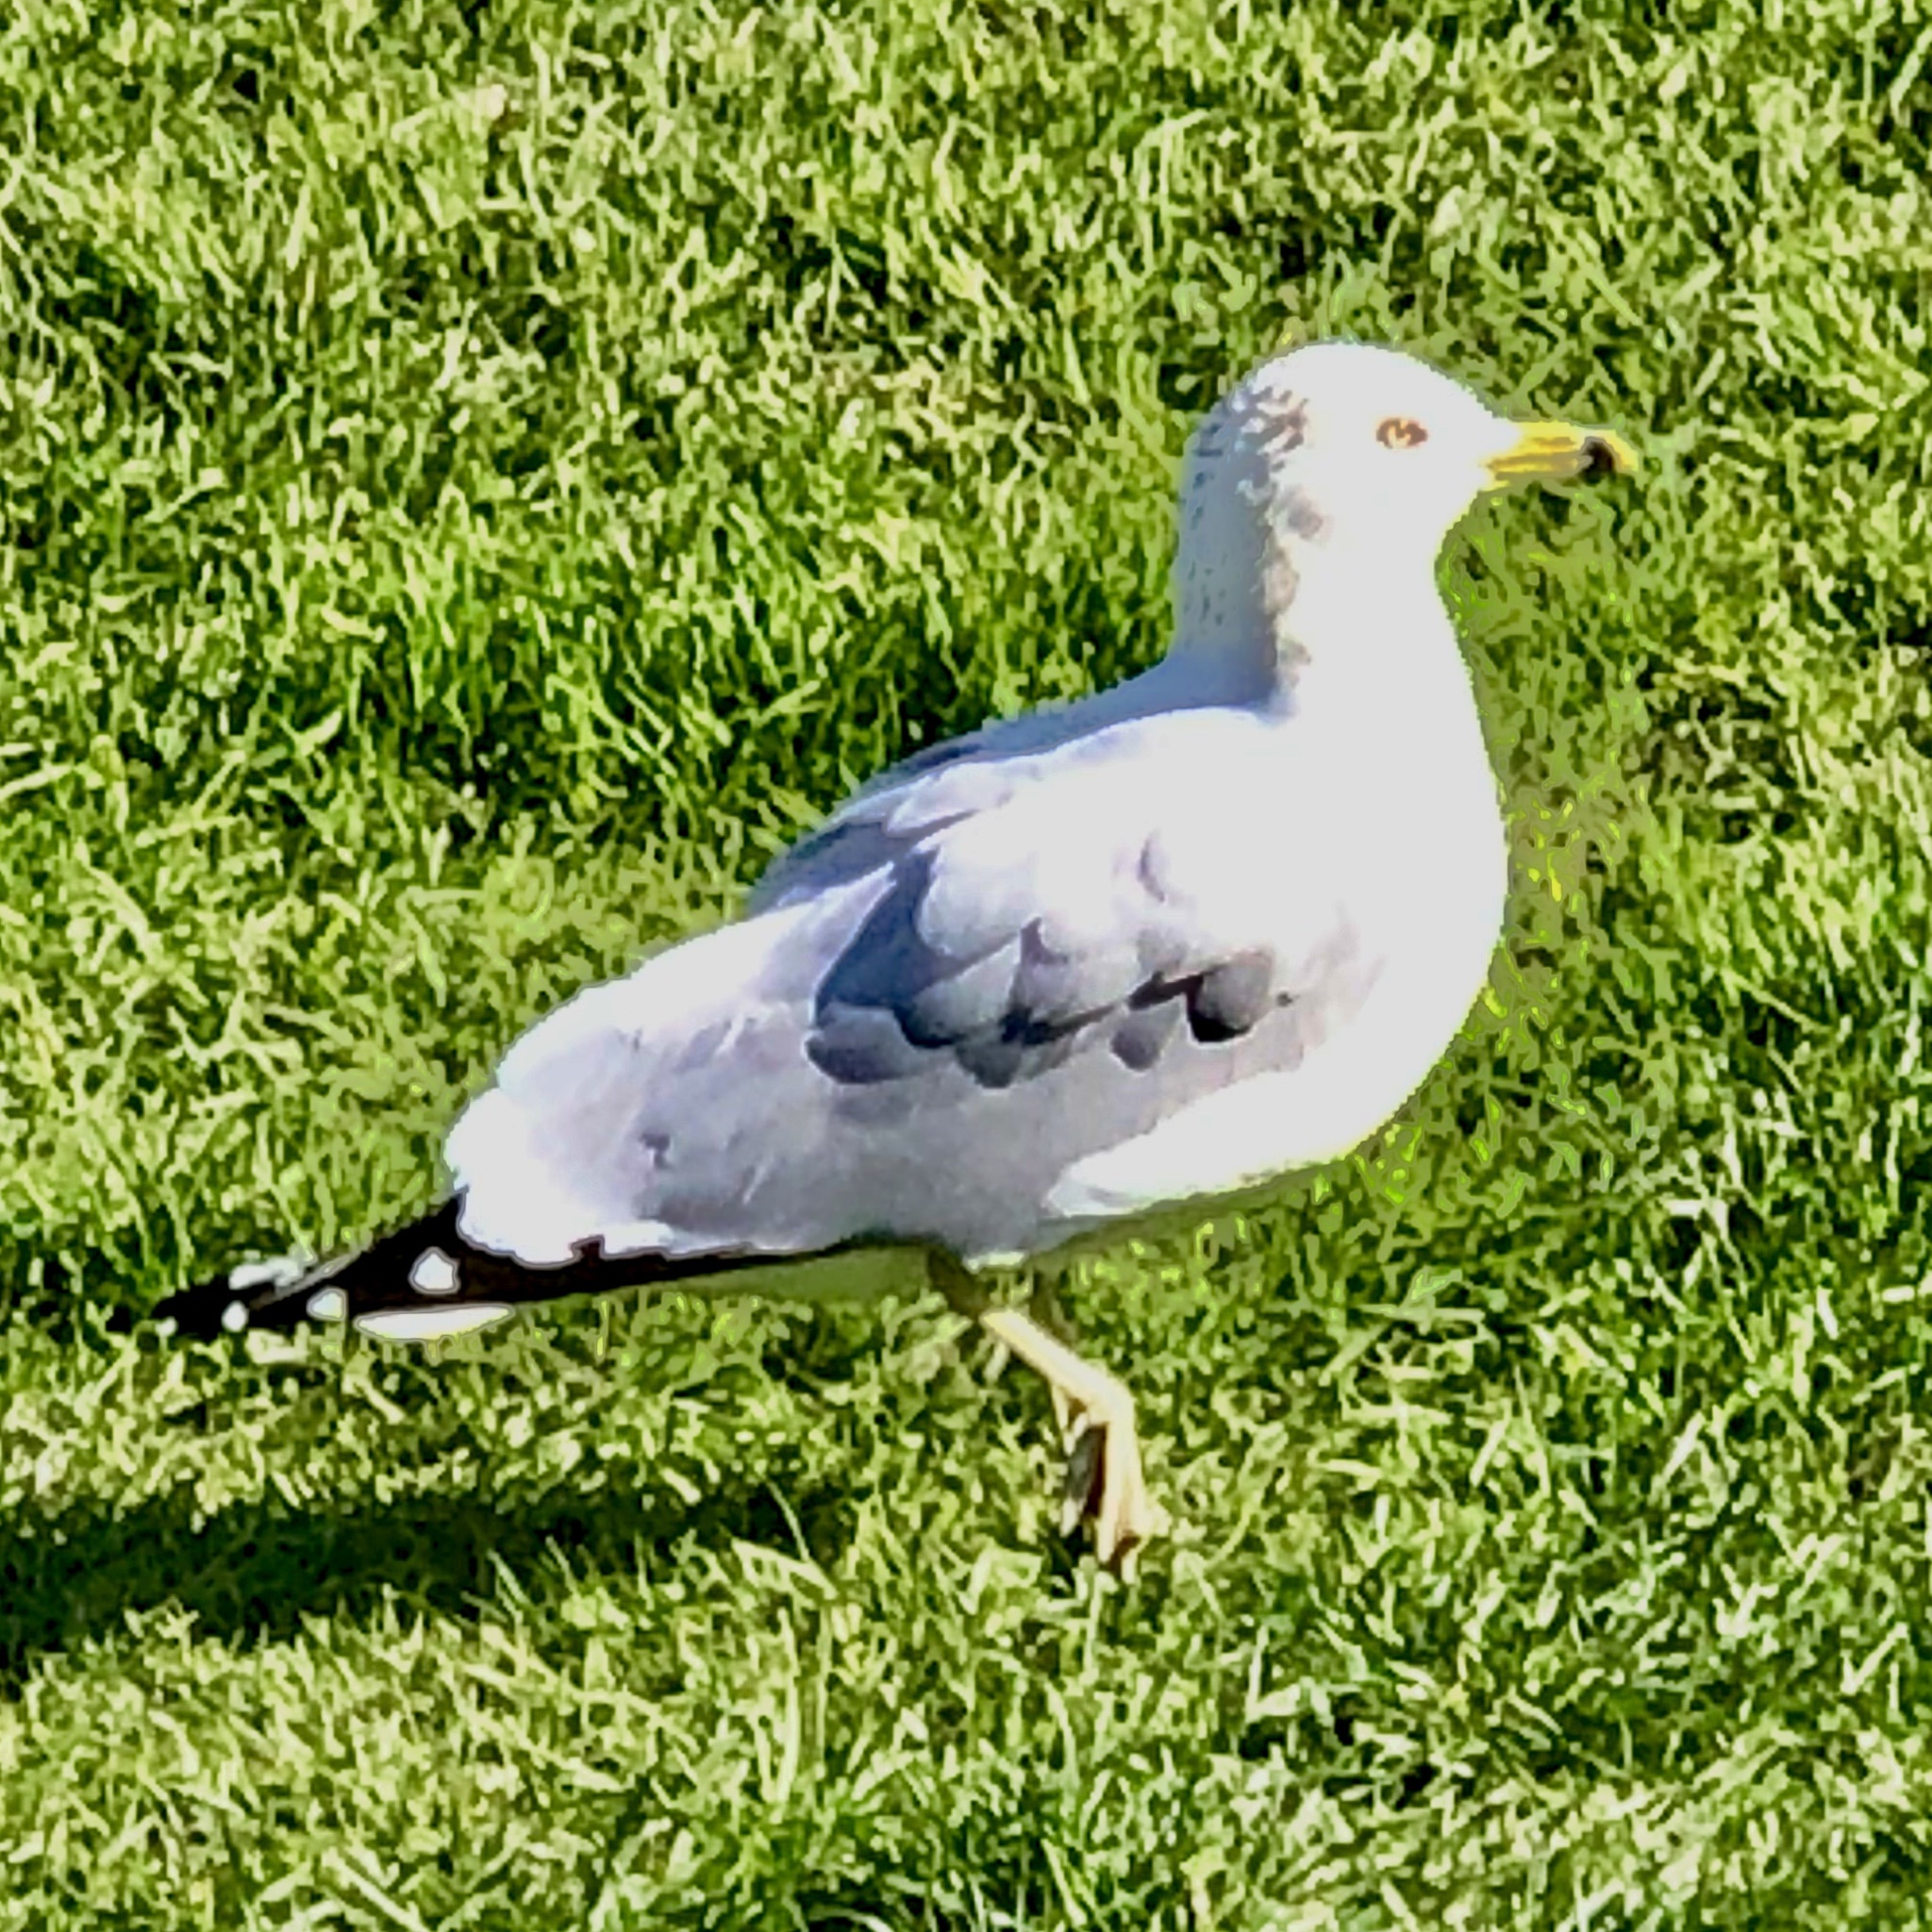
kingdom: Animalia
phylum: Chordata
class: Aves
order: Charadriiformes
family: Laridae
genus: Larus
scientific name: Larus delawarensis
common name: Ring-billed gull
